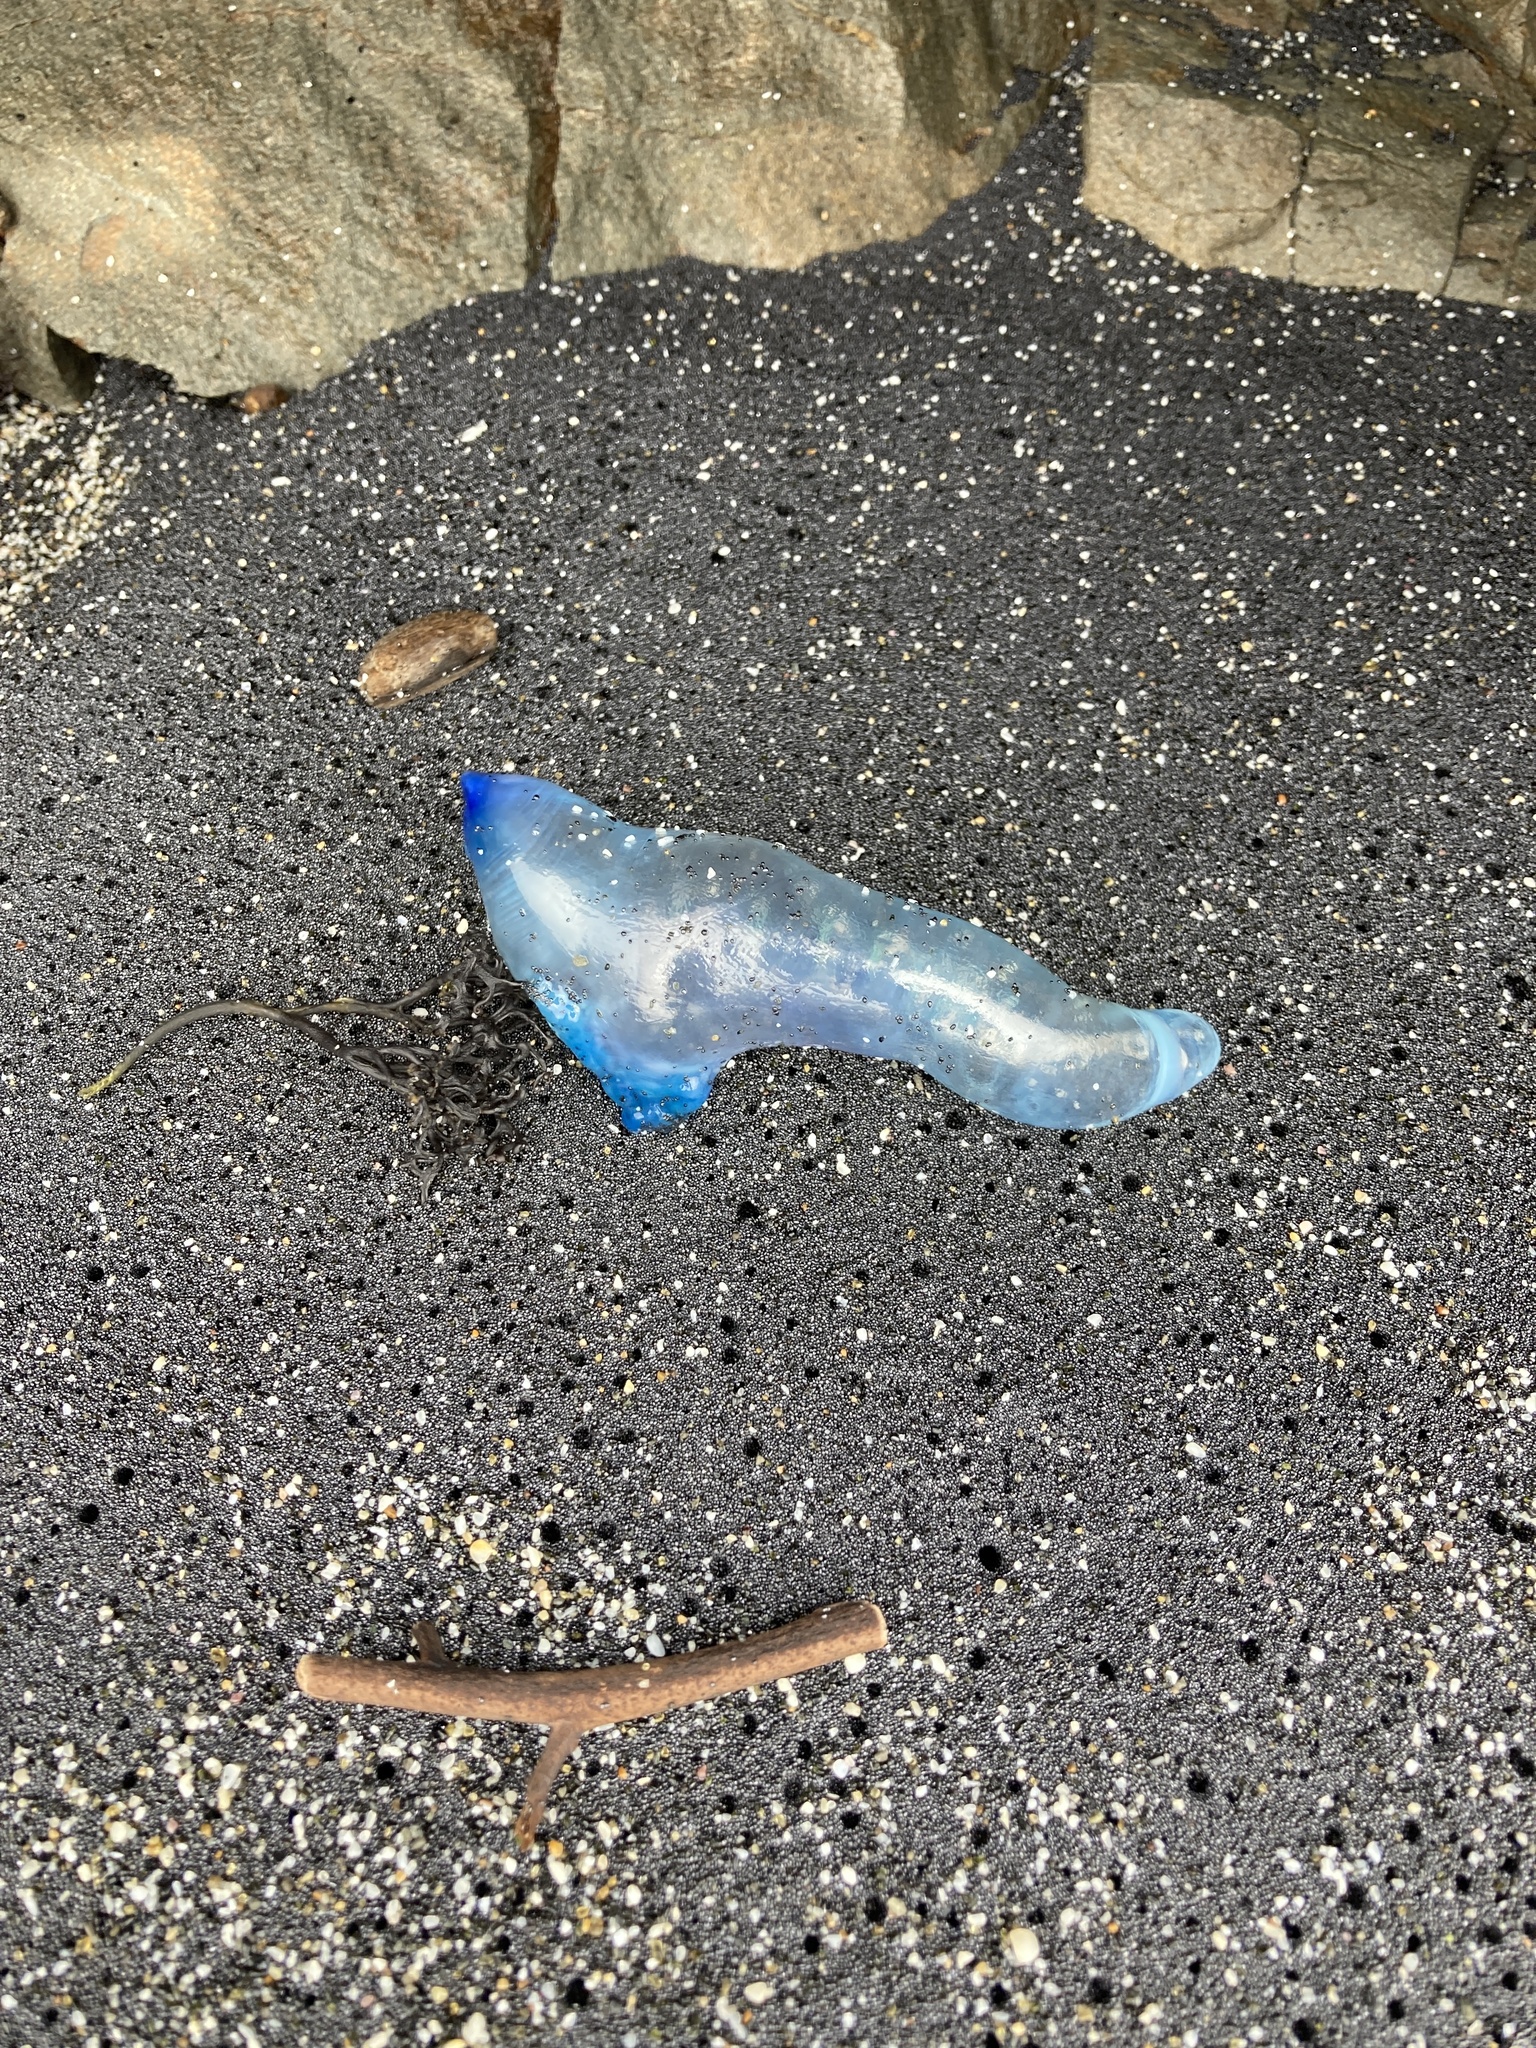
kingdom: Animalia
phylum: Cnidaria
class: Hydrozoa
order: Siphonophorae
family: Physaliidae
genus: Physalia
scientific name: Physalia physalis
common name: Portuguese man-of-war
